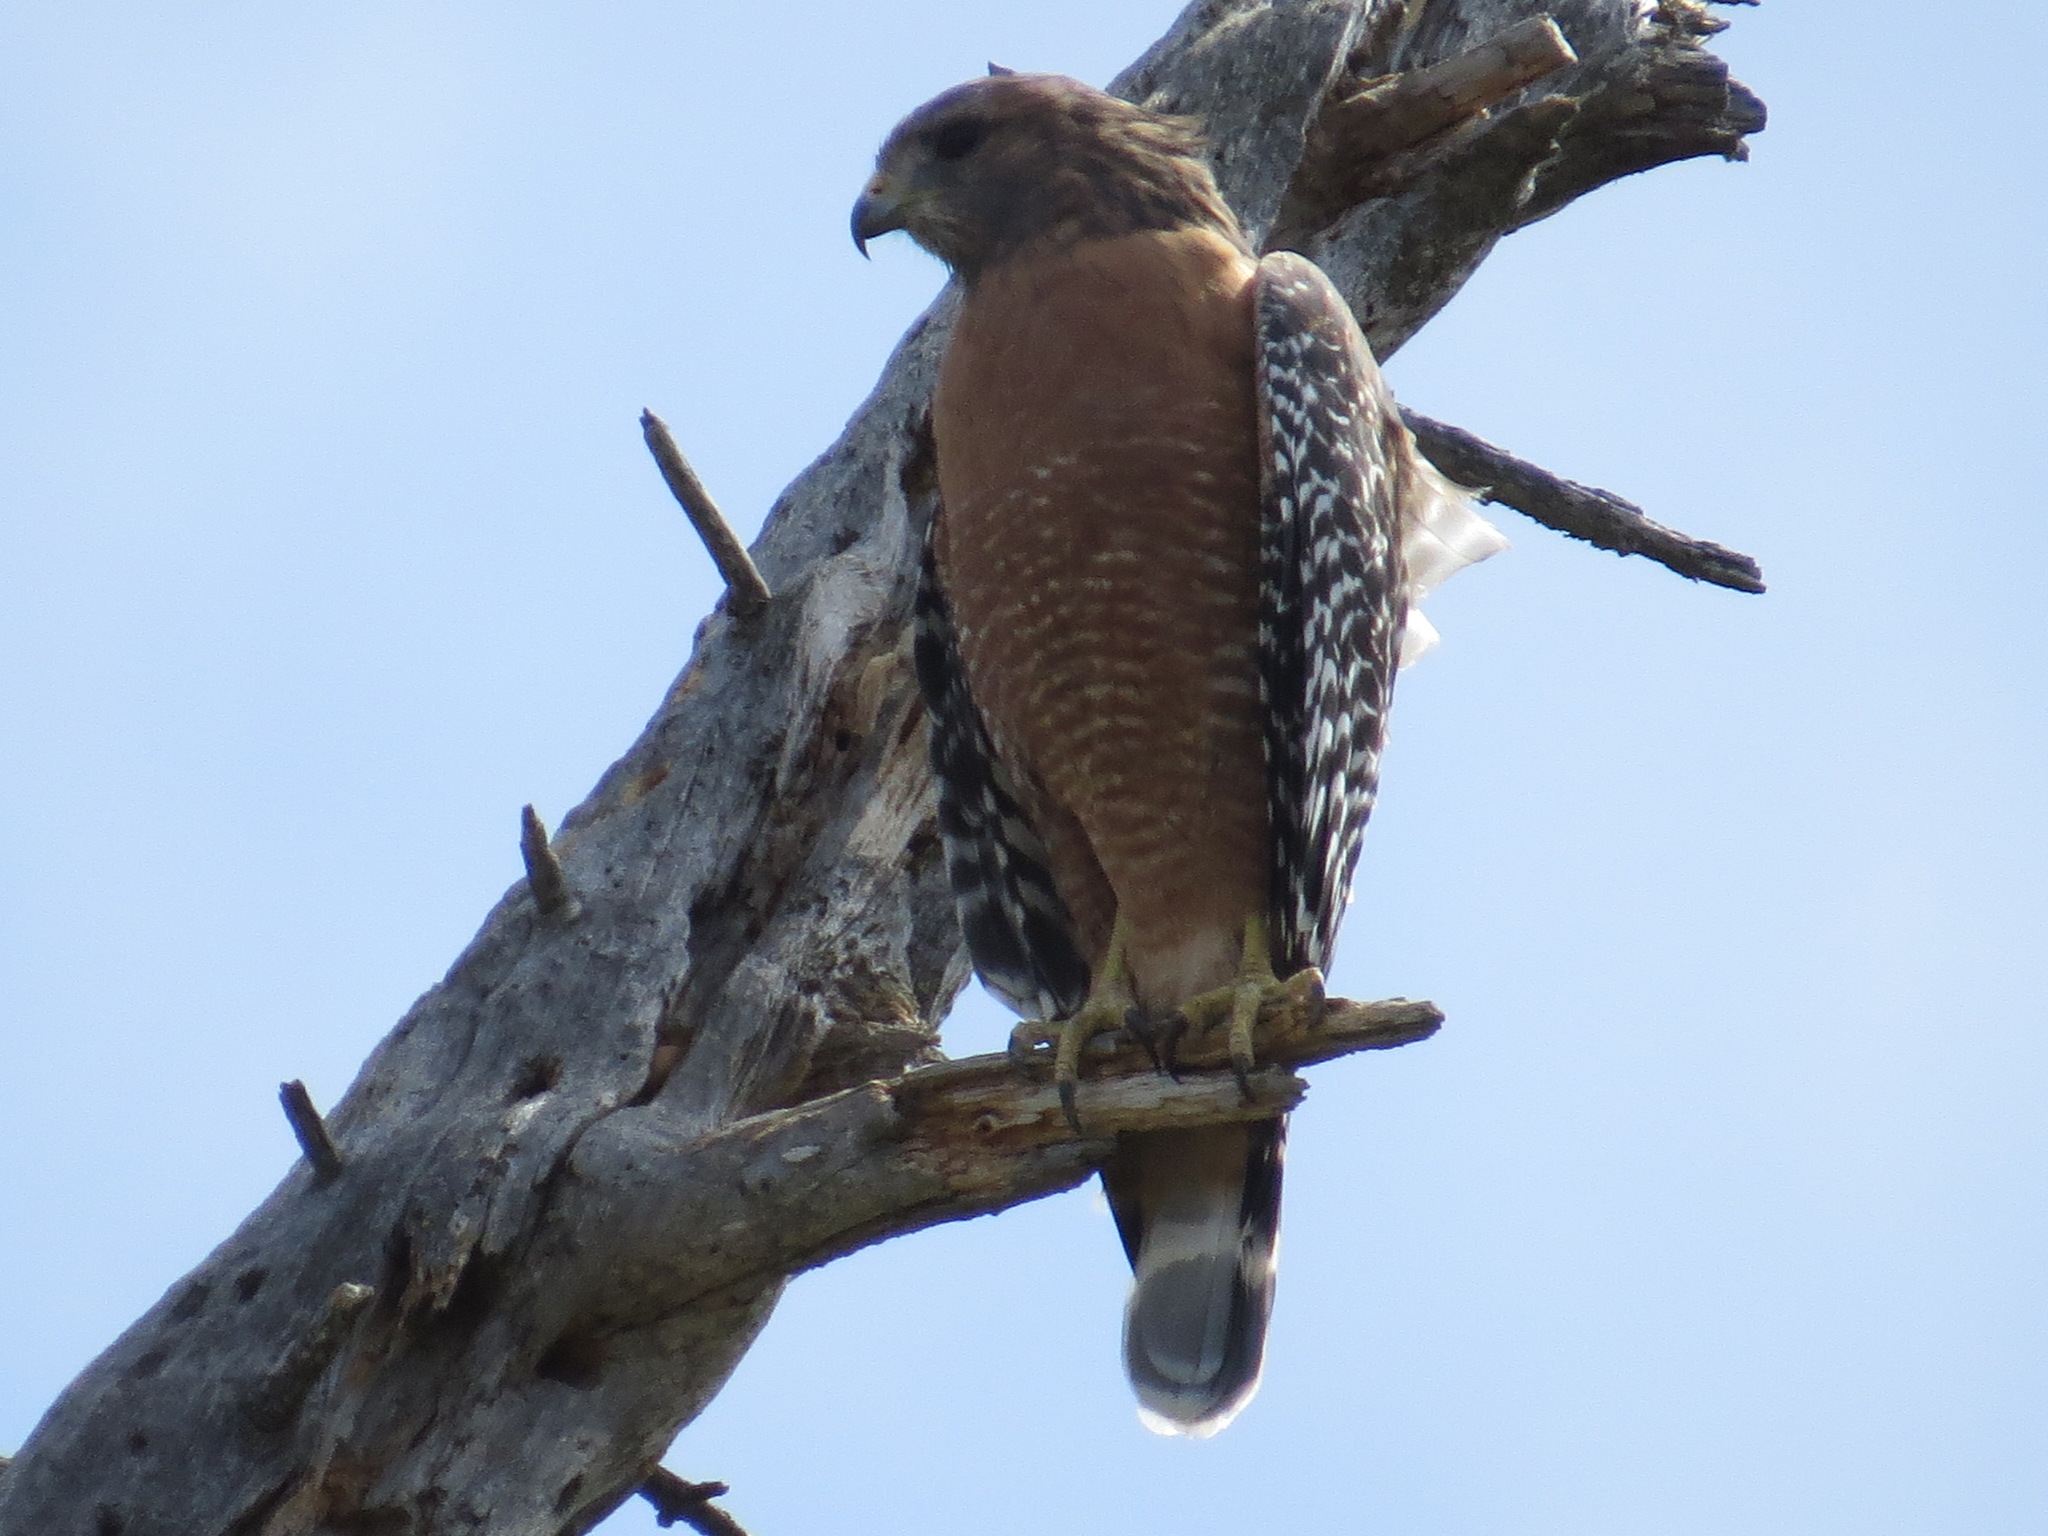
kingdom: Animalia
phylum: Chordata
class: Aves
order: Accipitriformes
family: Accipitridae
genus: Buteo
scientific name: Buteo lineatus
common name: Red-shouldered hawk
